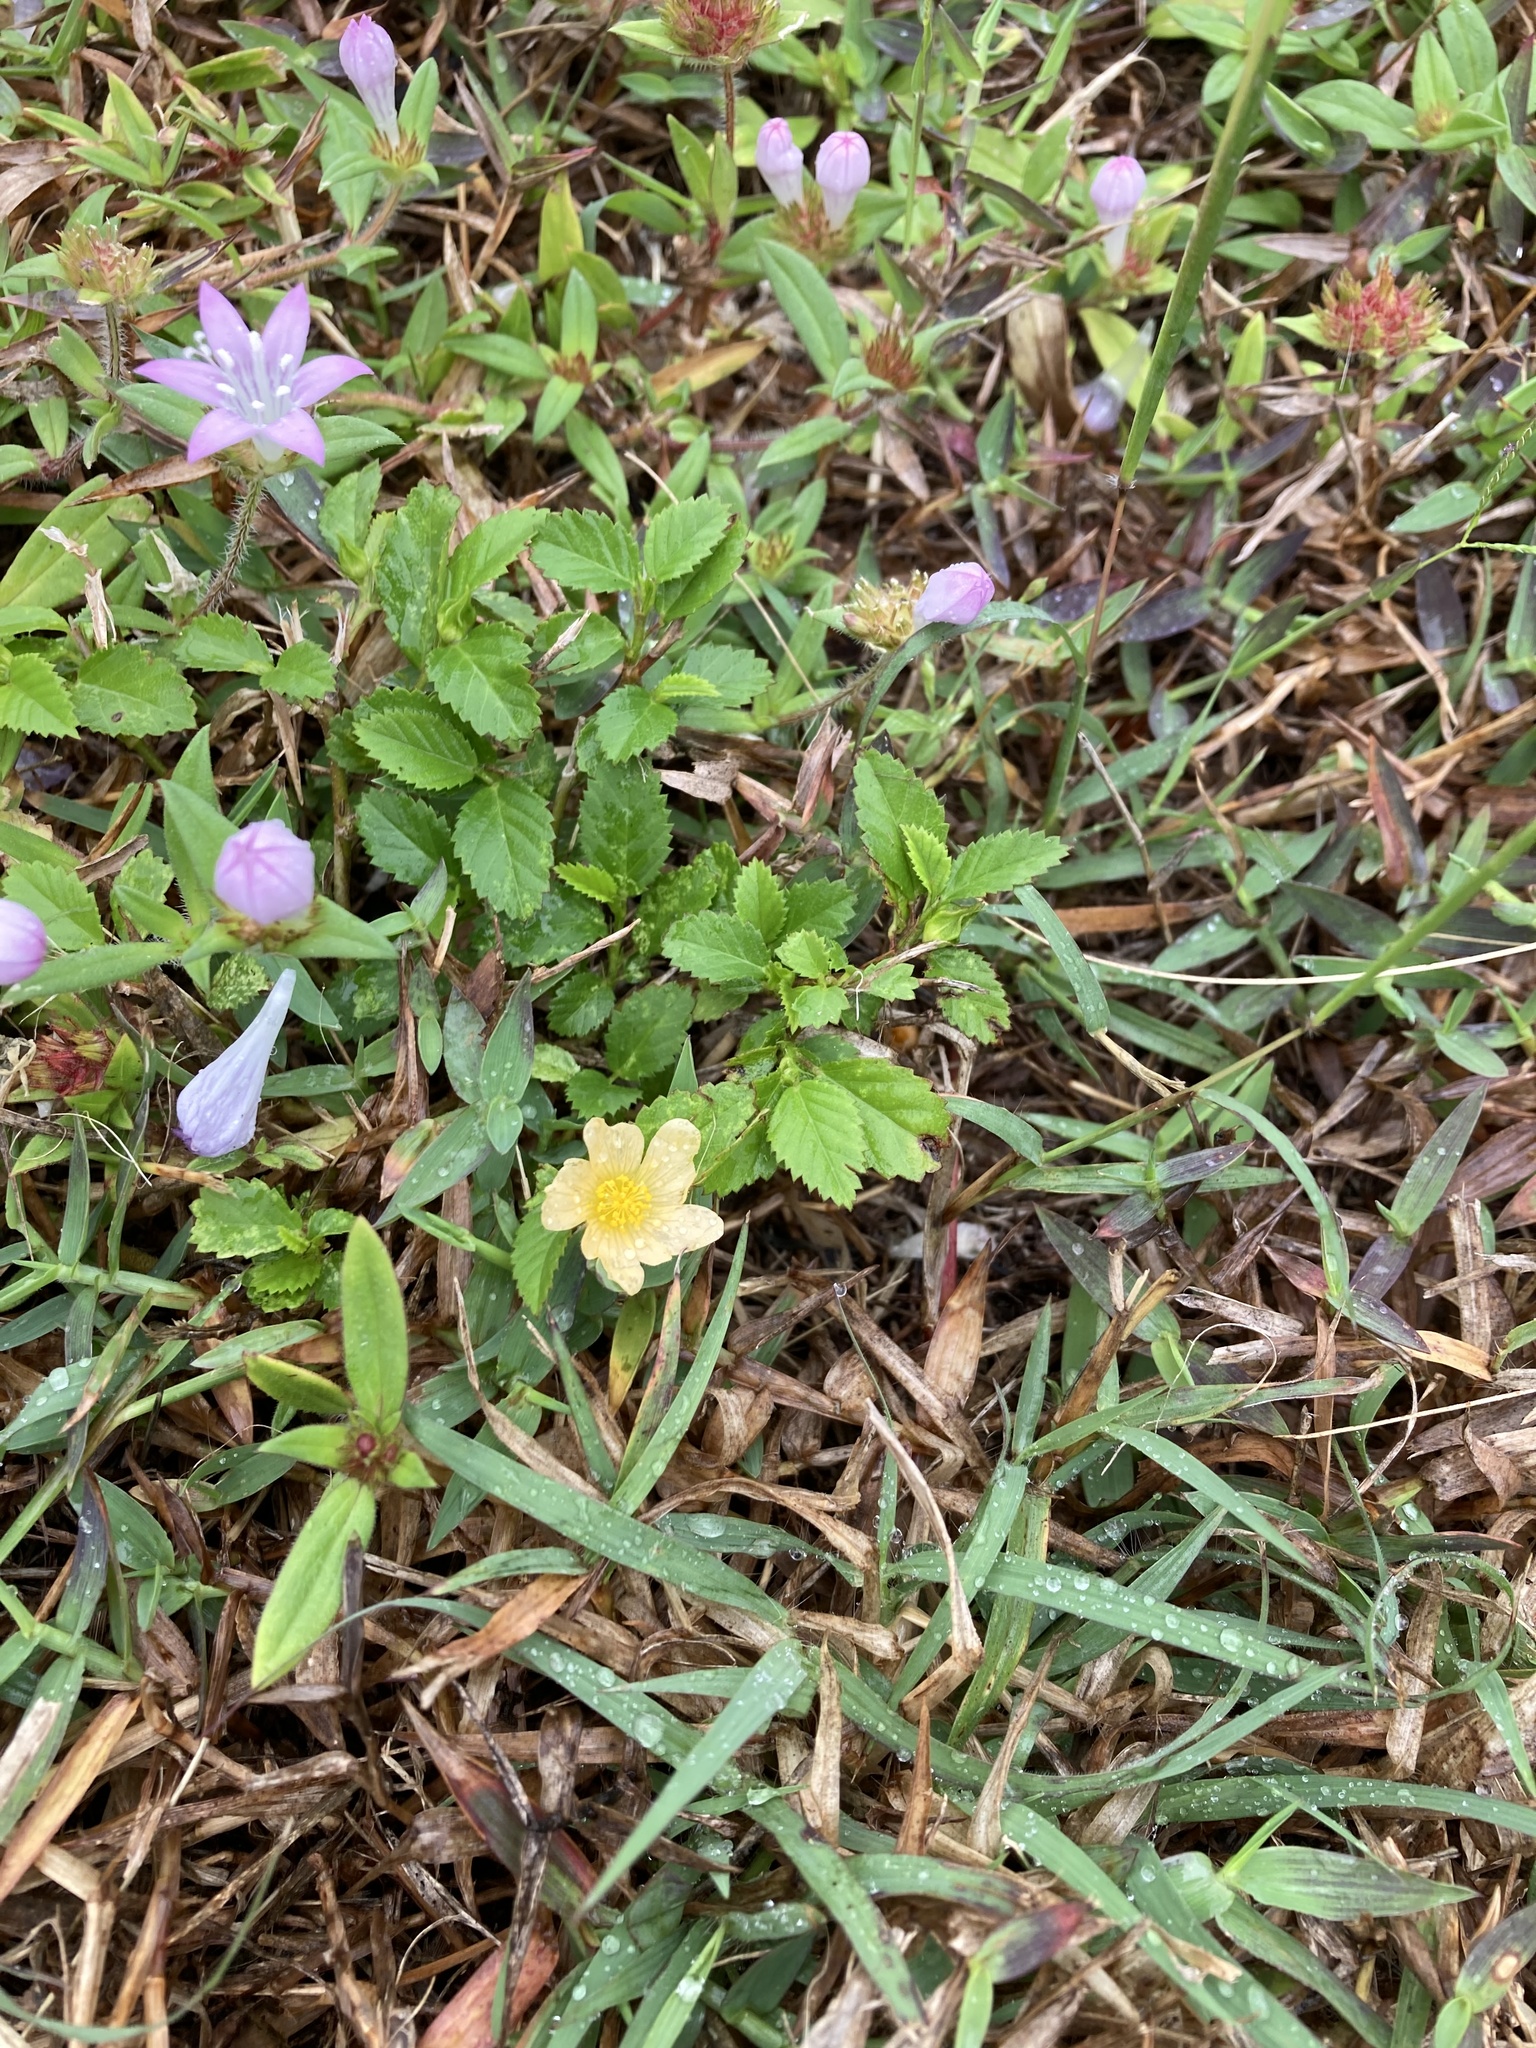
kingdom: Plantae
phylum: Tracheophyta
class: Magnoliopsida
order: Malvales
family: Malvaceae
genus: Sida
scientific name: Sida ulmifolia
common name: Broom weed
